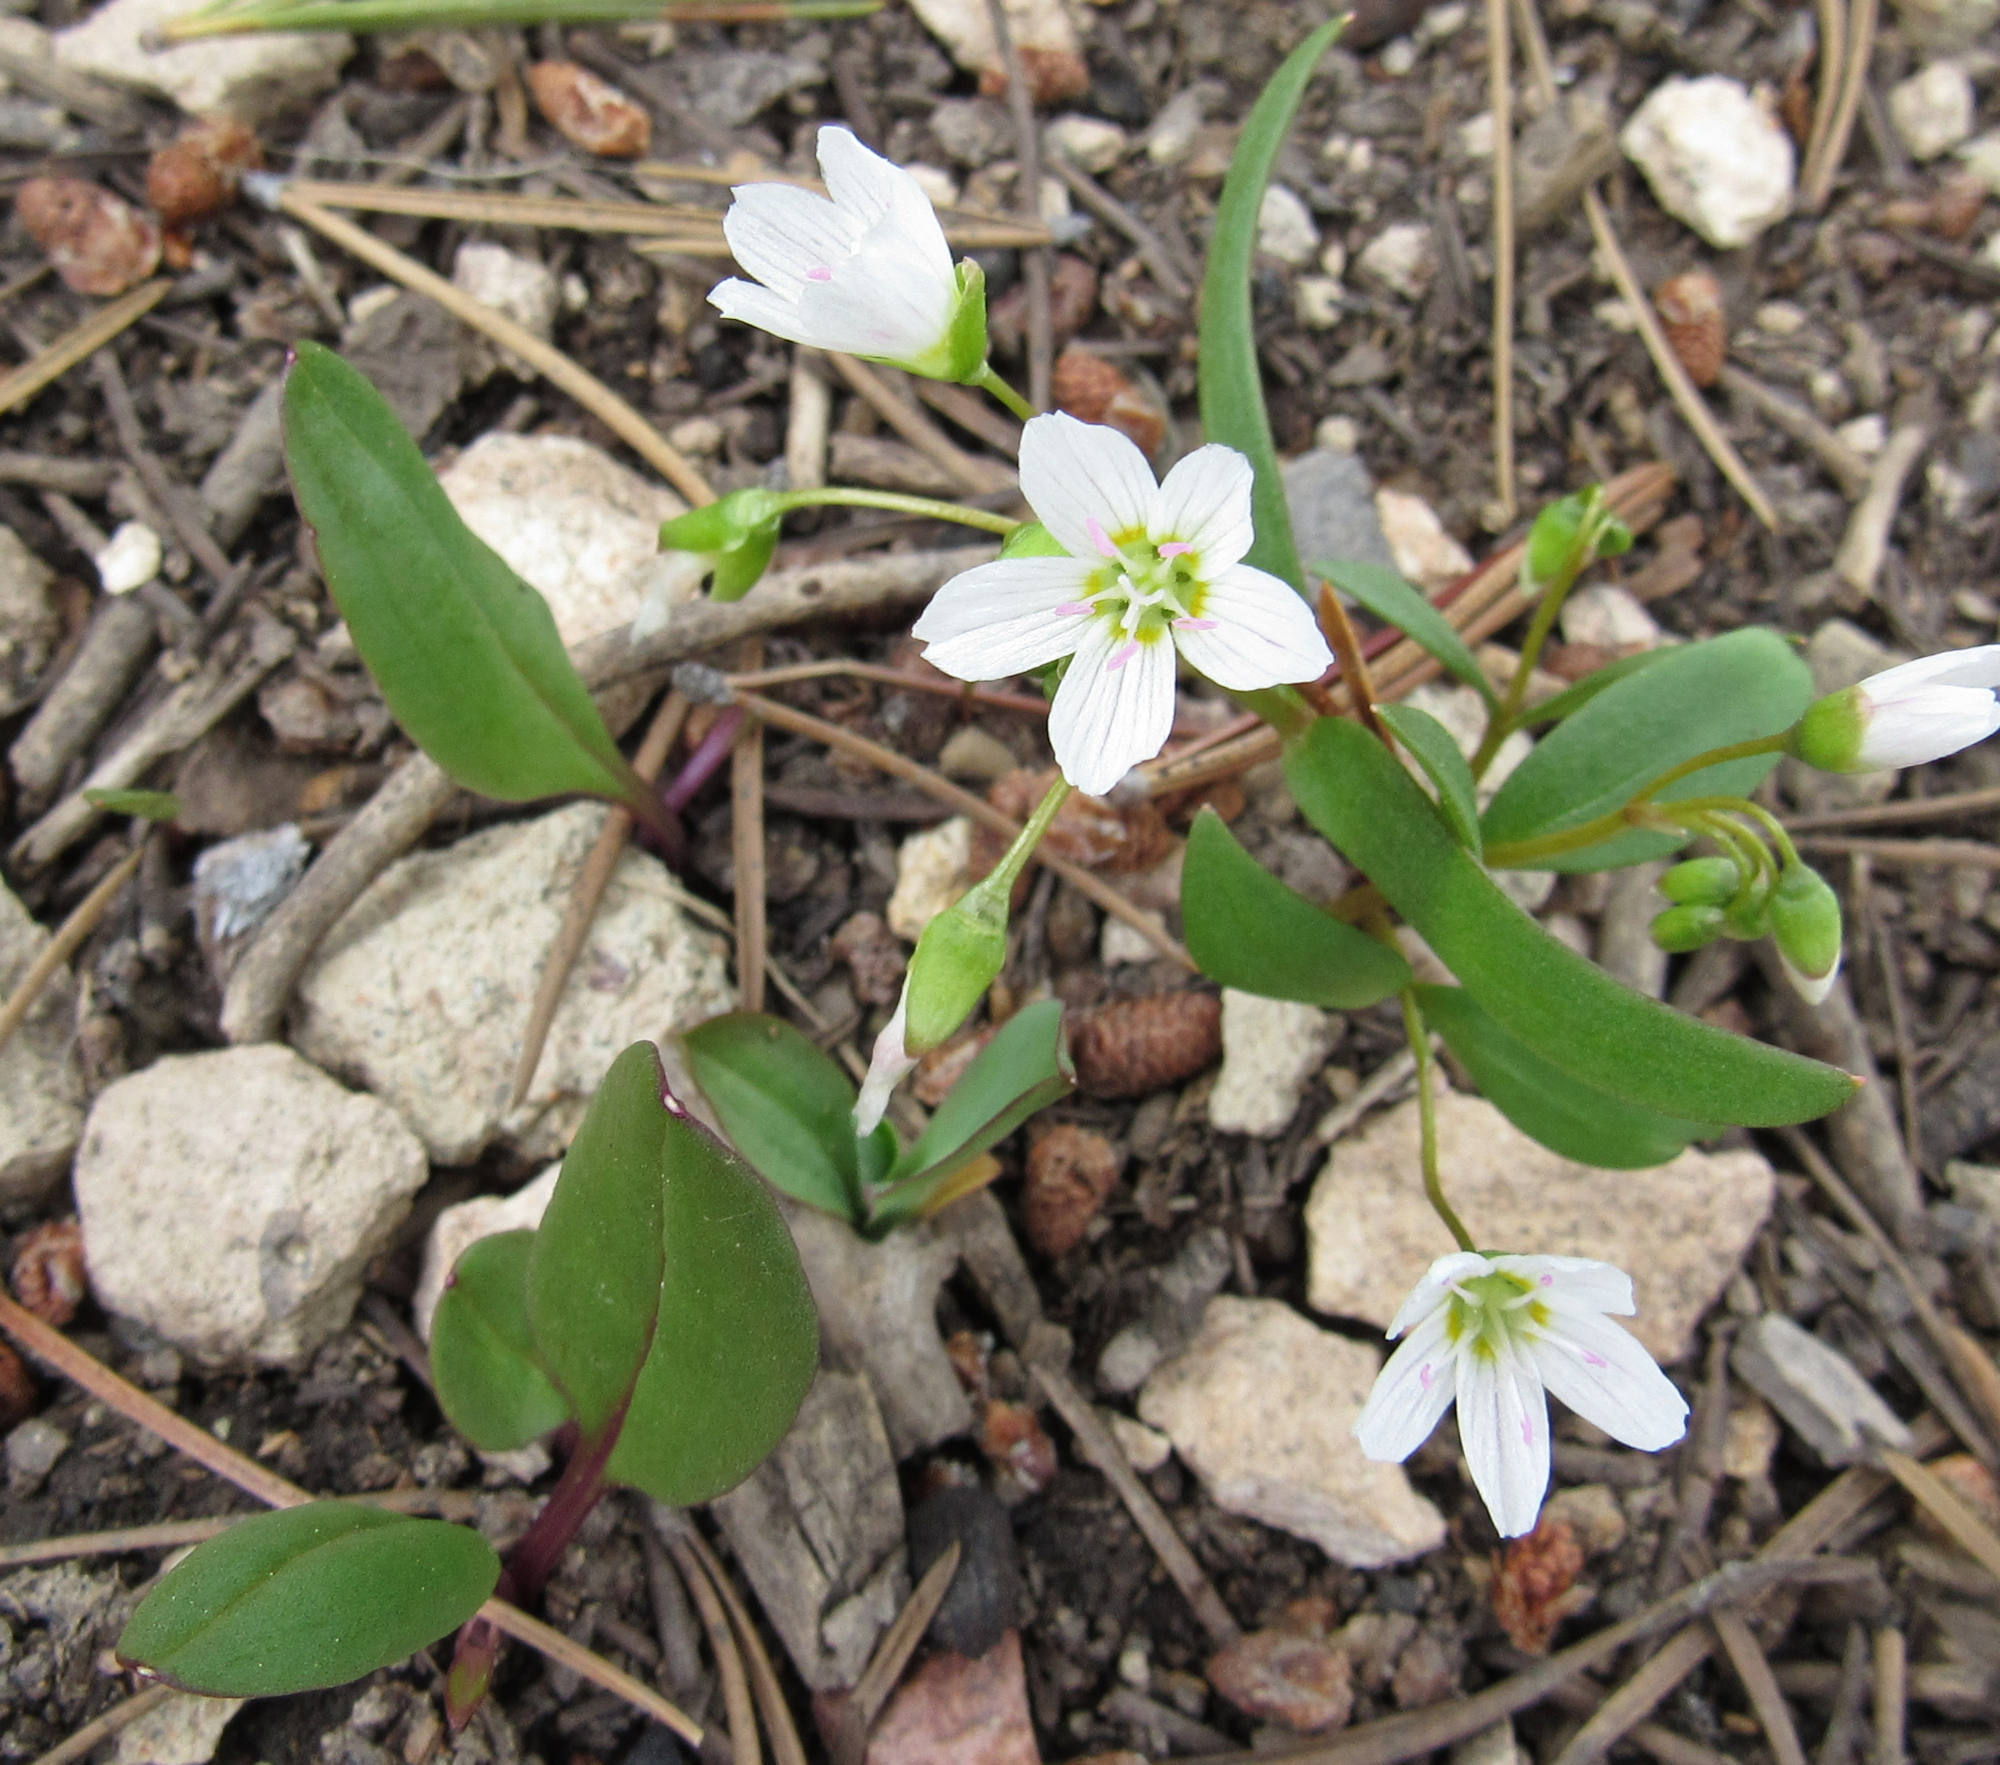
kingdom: Plantae
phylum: Tracheophyta
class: Magnoliopsida
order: Caryophyllales
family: Montiaceae
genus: Claytonia
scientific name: Claytonia lanceolata
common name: Western spring-beauty
